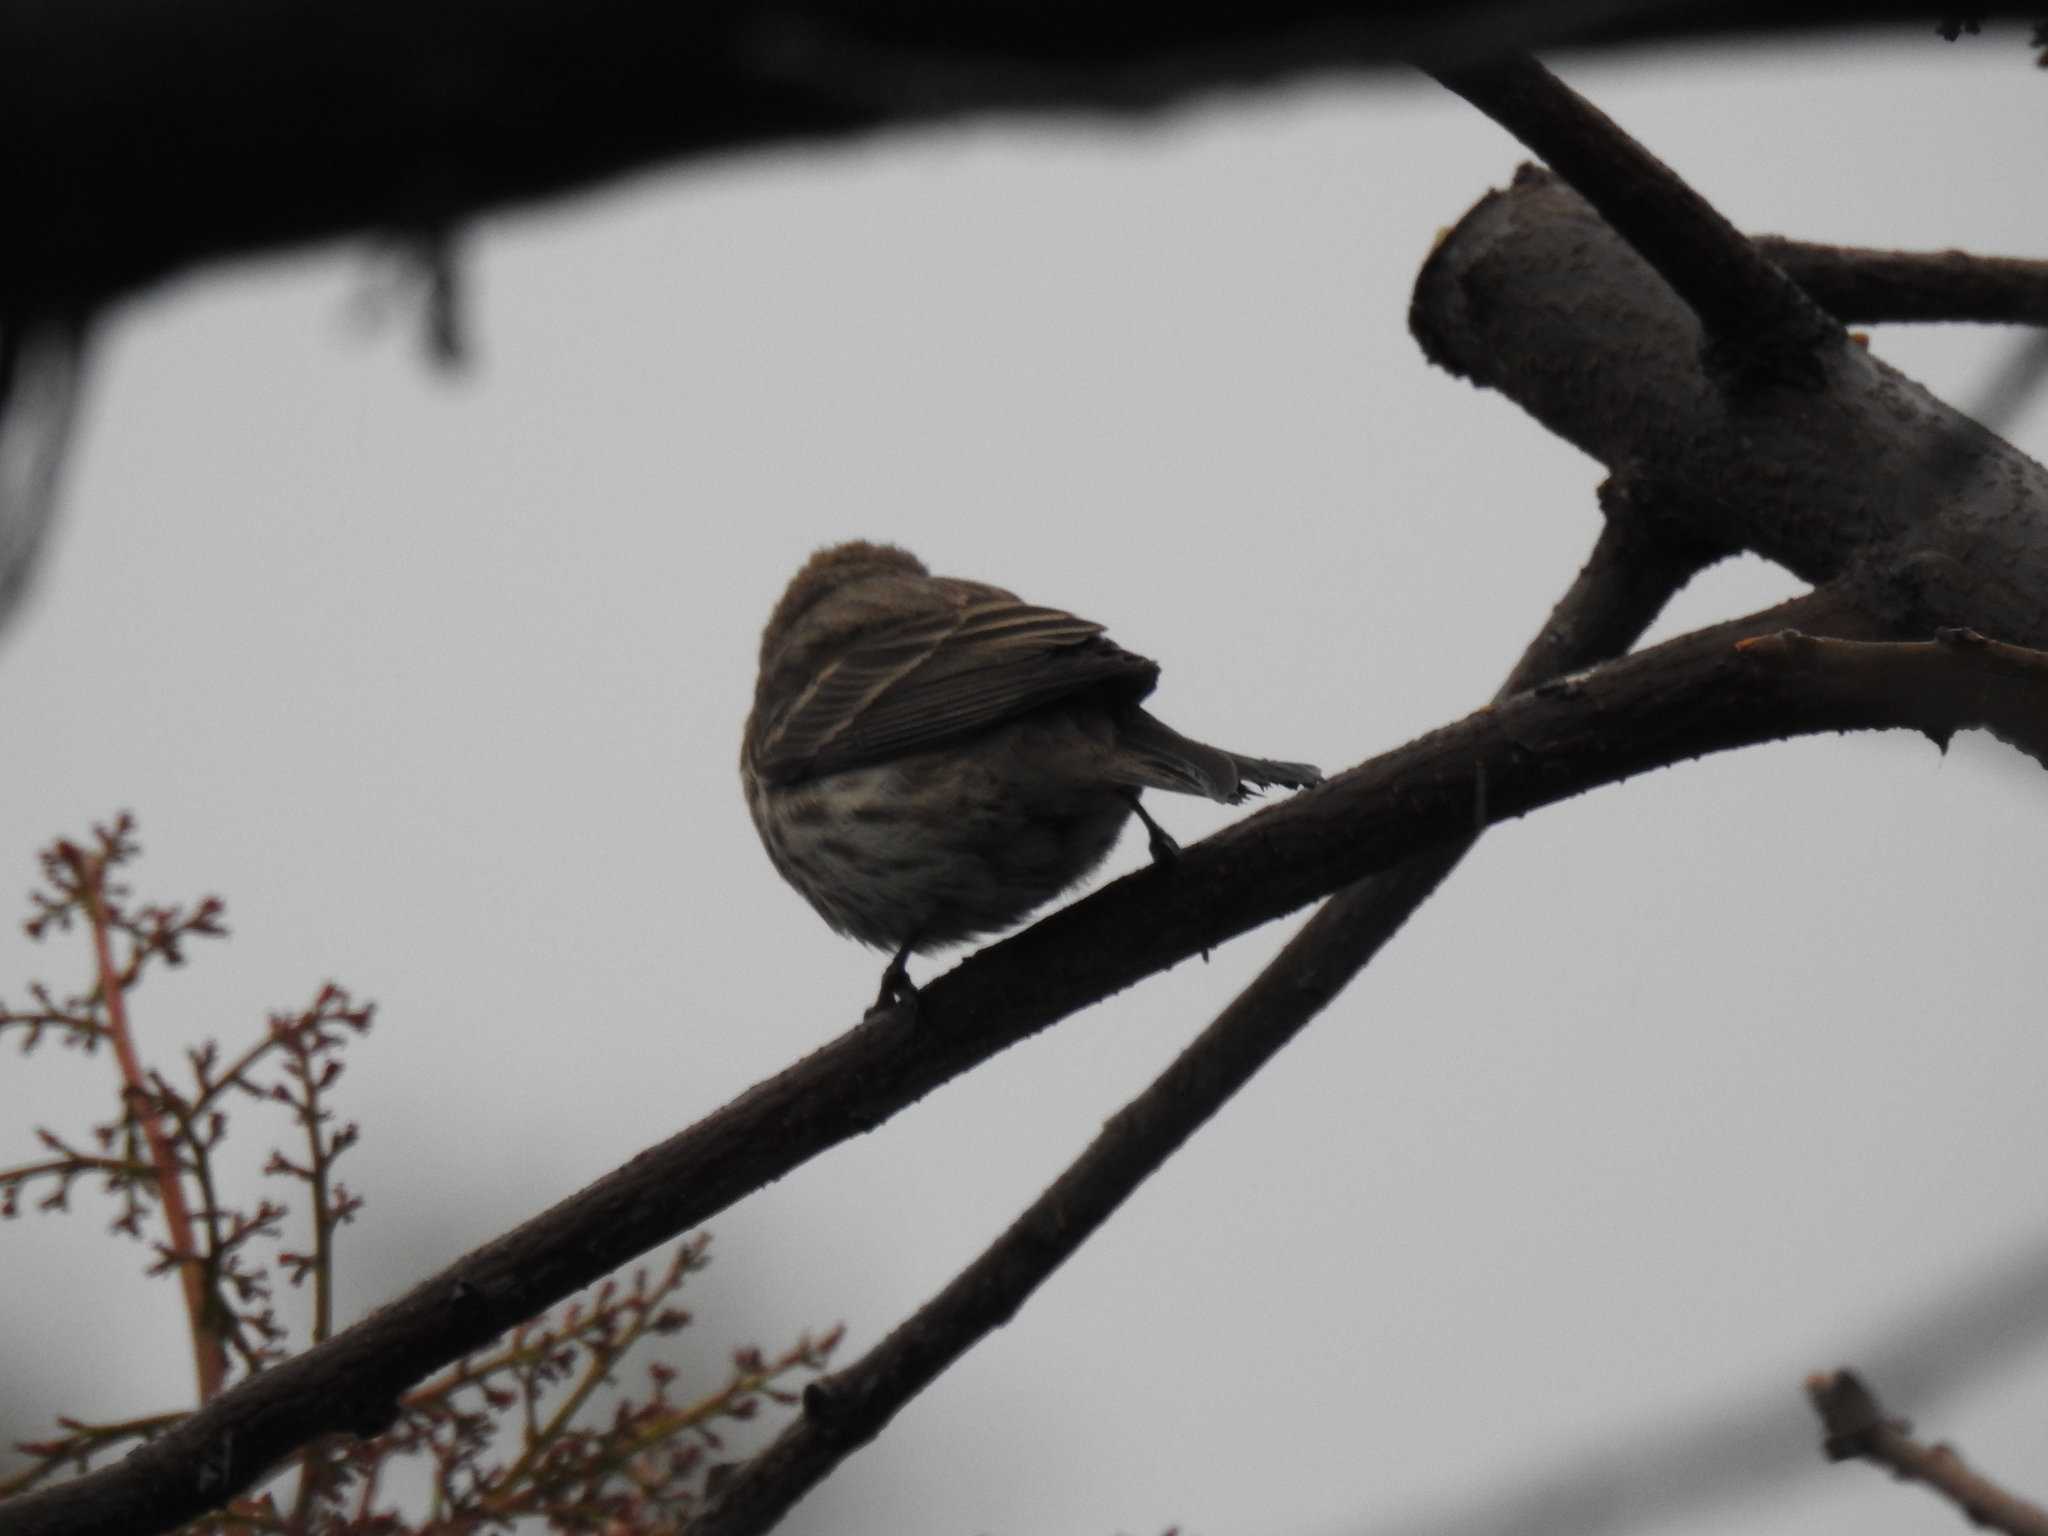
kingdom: Animalia
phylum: Chordata
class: Aves
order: Passeriformes
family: Fringillidae
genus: Haemorhous
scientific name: Haemorhous mexicanus
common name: House finch
